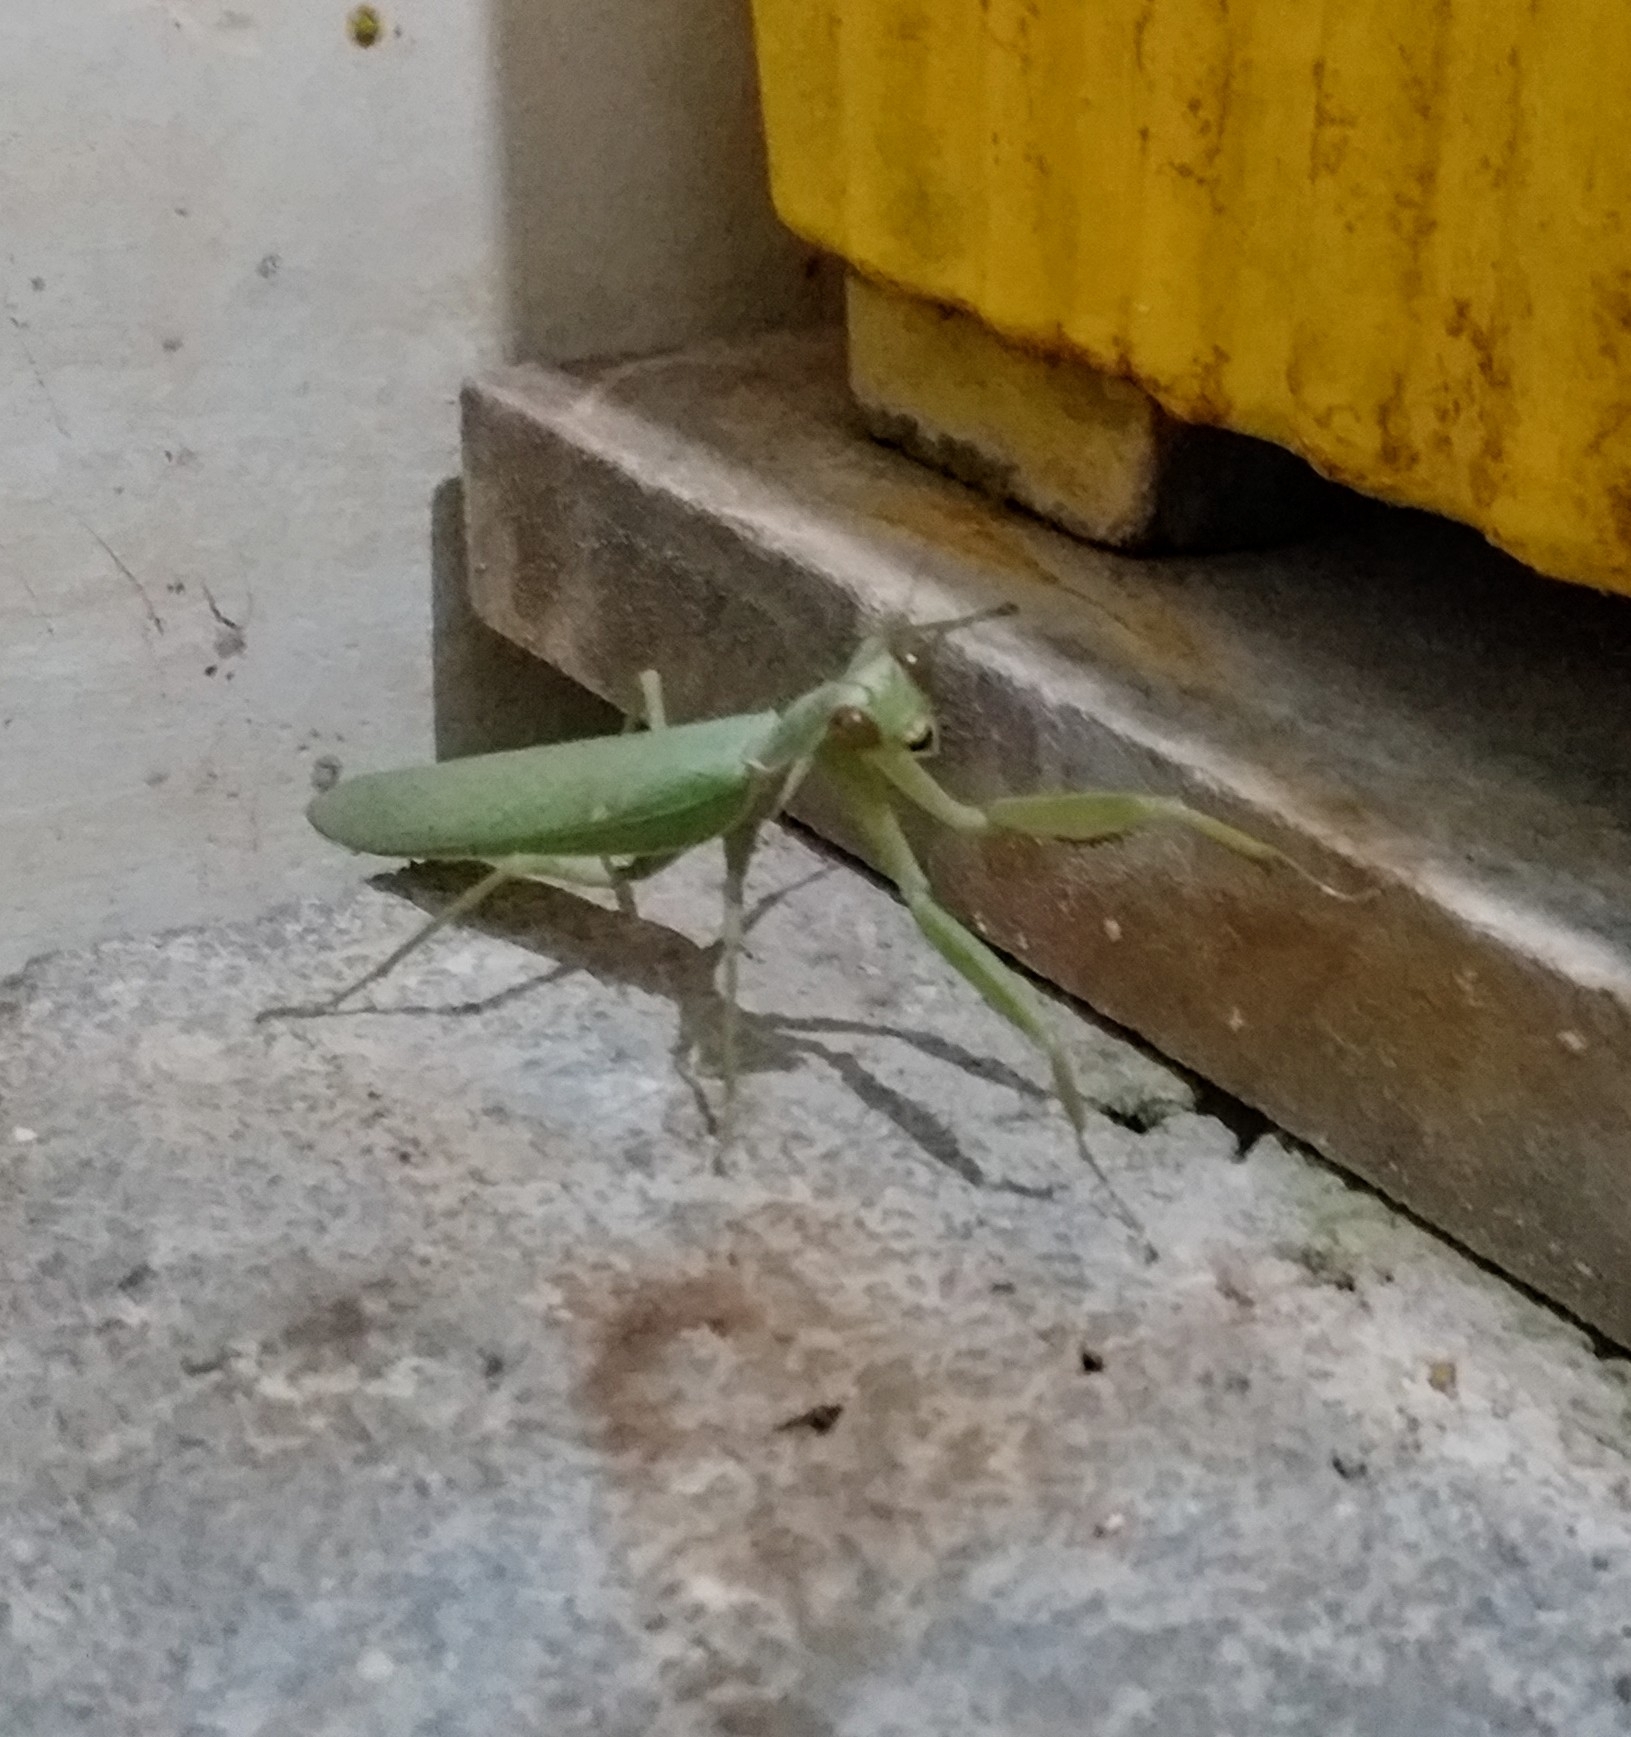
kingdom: Animalia
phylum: Arthropoda
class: Insecta
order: Mantodea
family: Mantidae
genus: Hierodula
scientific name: Hierodula tenuidentata
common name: Giant asian mantis
